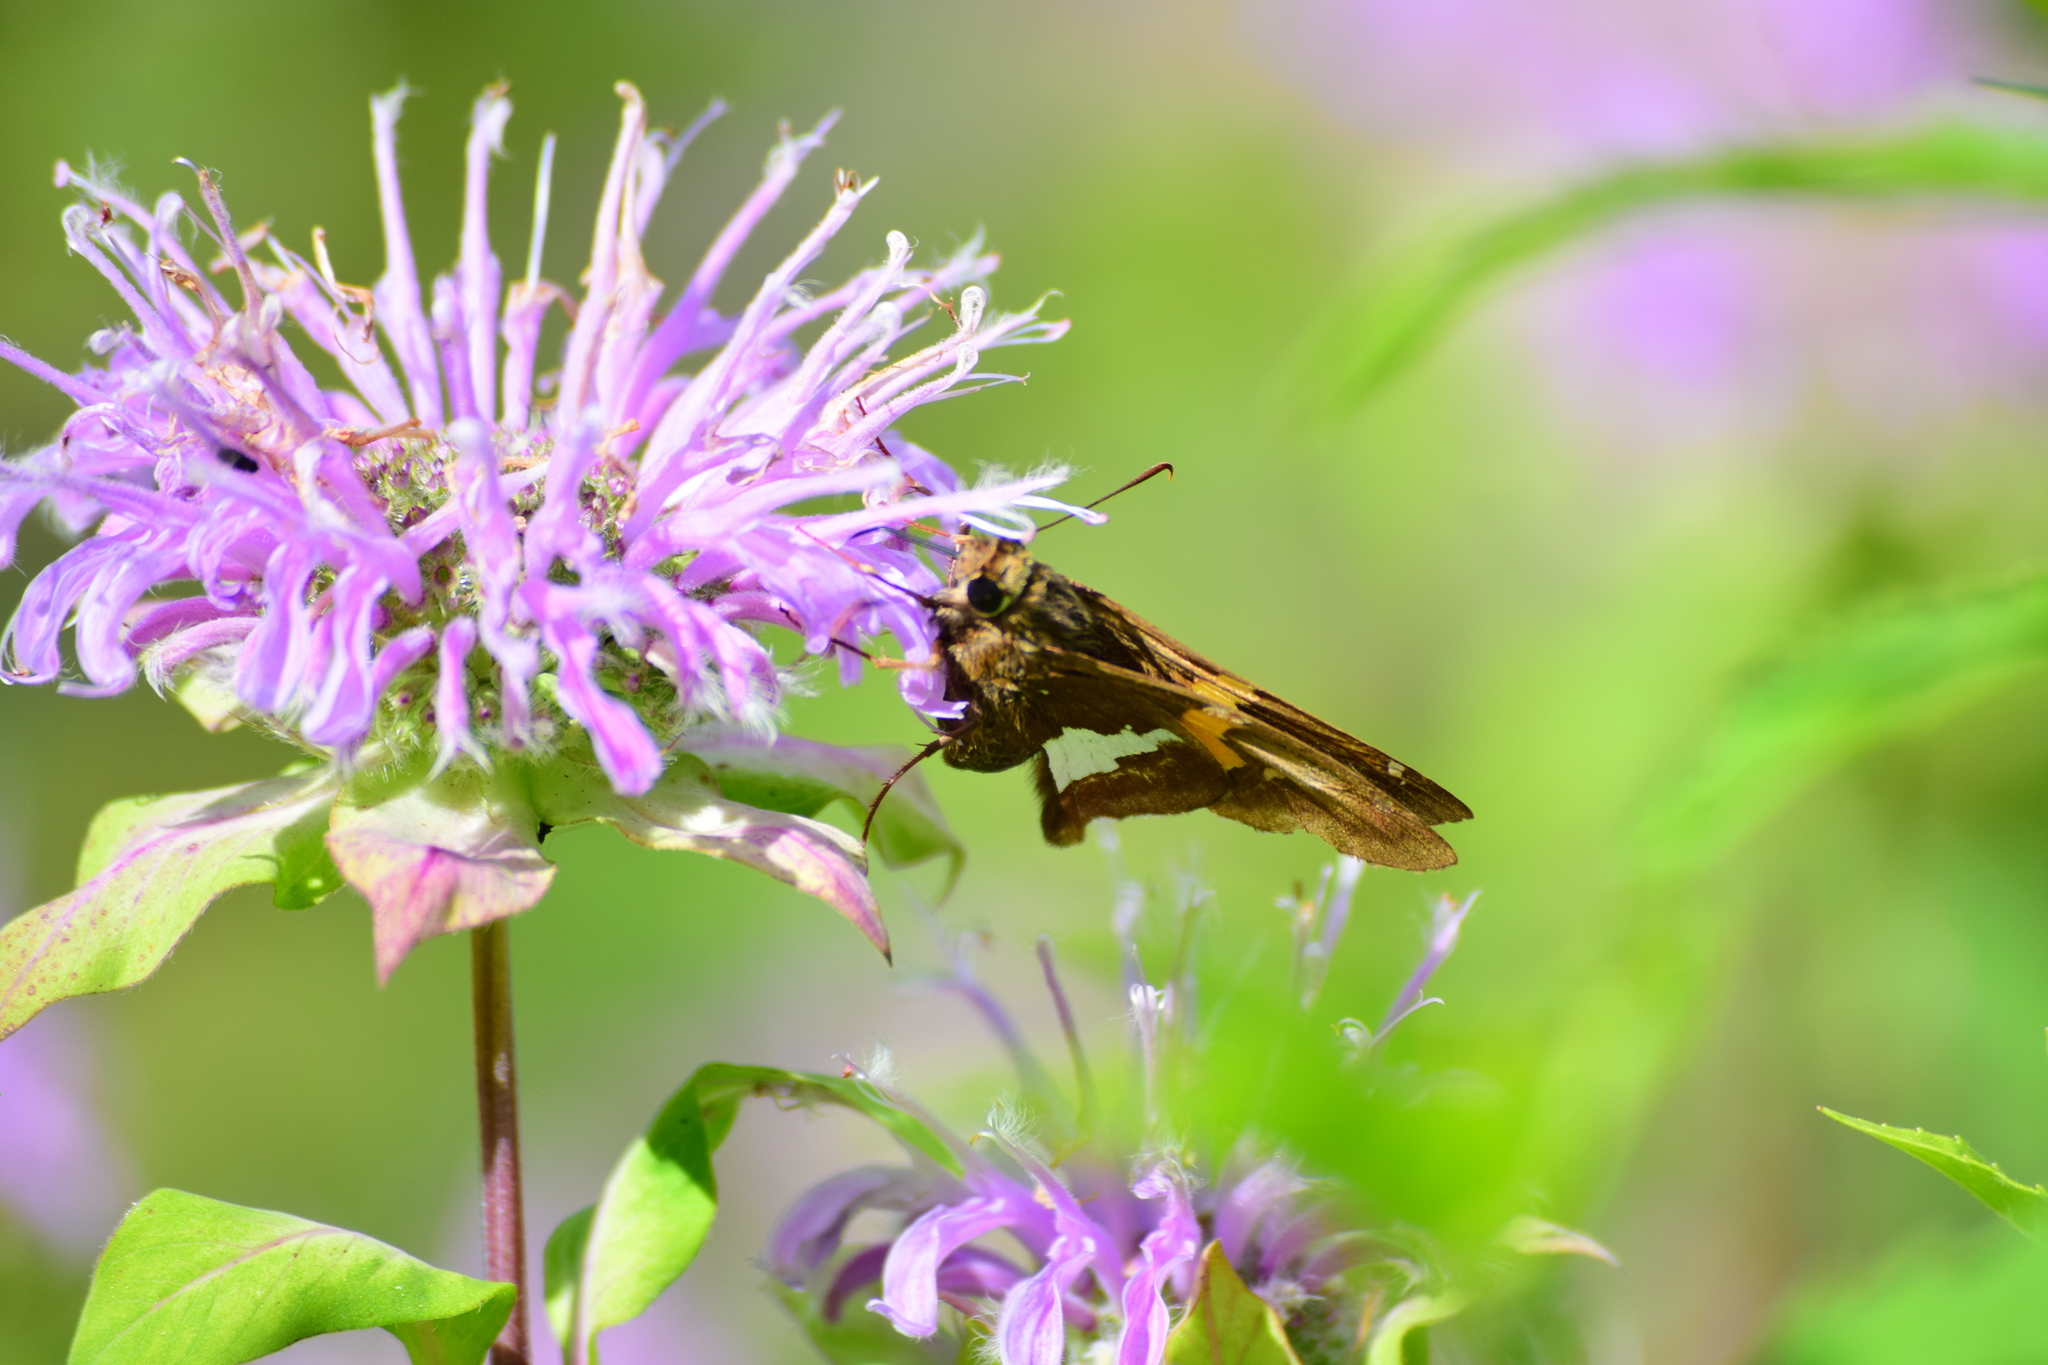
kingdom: Animalia
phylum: Arthropoda
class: Insecta
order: Lepidoptera
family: Hesperiidae
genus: Epargyreus
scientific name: Epargyreus clarus
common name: Silver-spotted skipper
